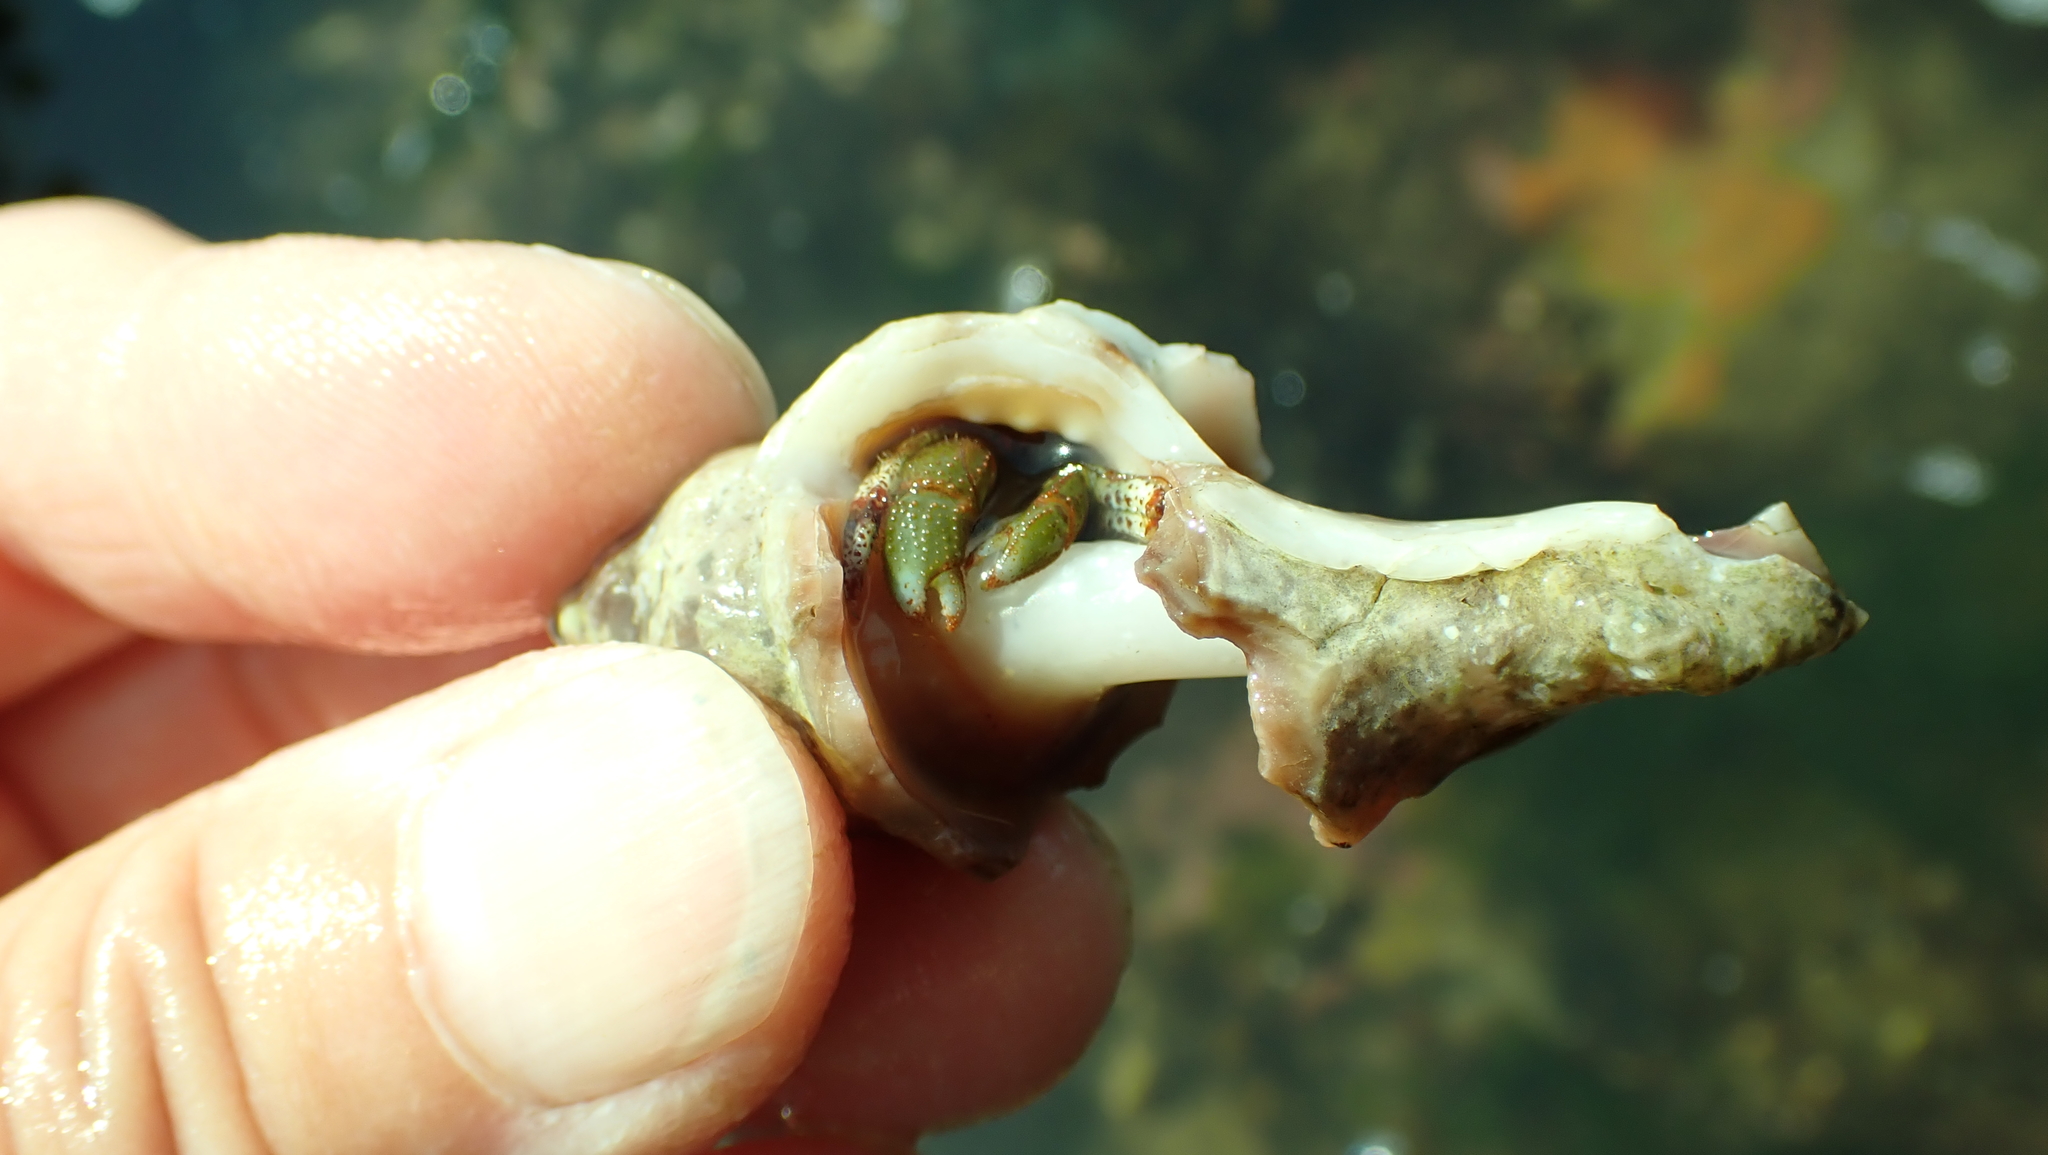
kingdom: Animalia
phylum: Arthropoda
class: Malacostraca
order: Decapoda
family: Paguridae
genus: Pagurus
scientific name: Pagurus beringanus
